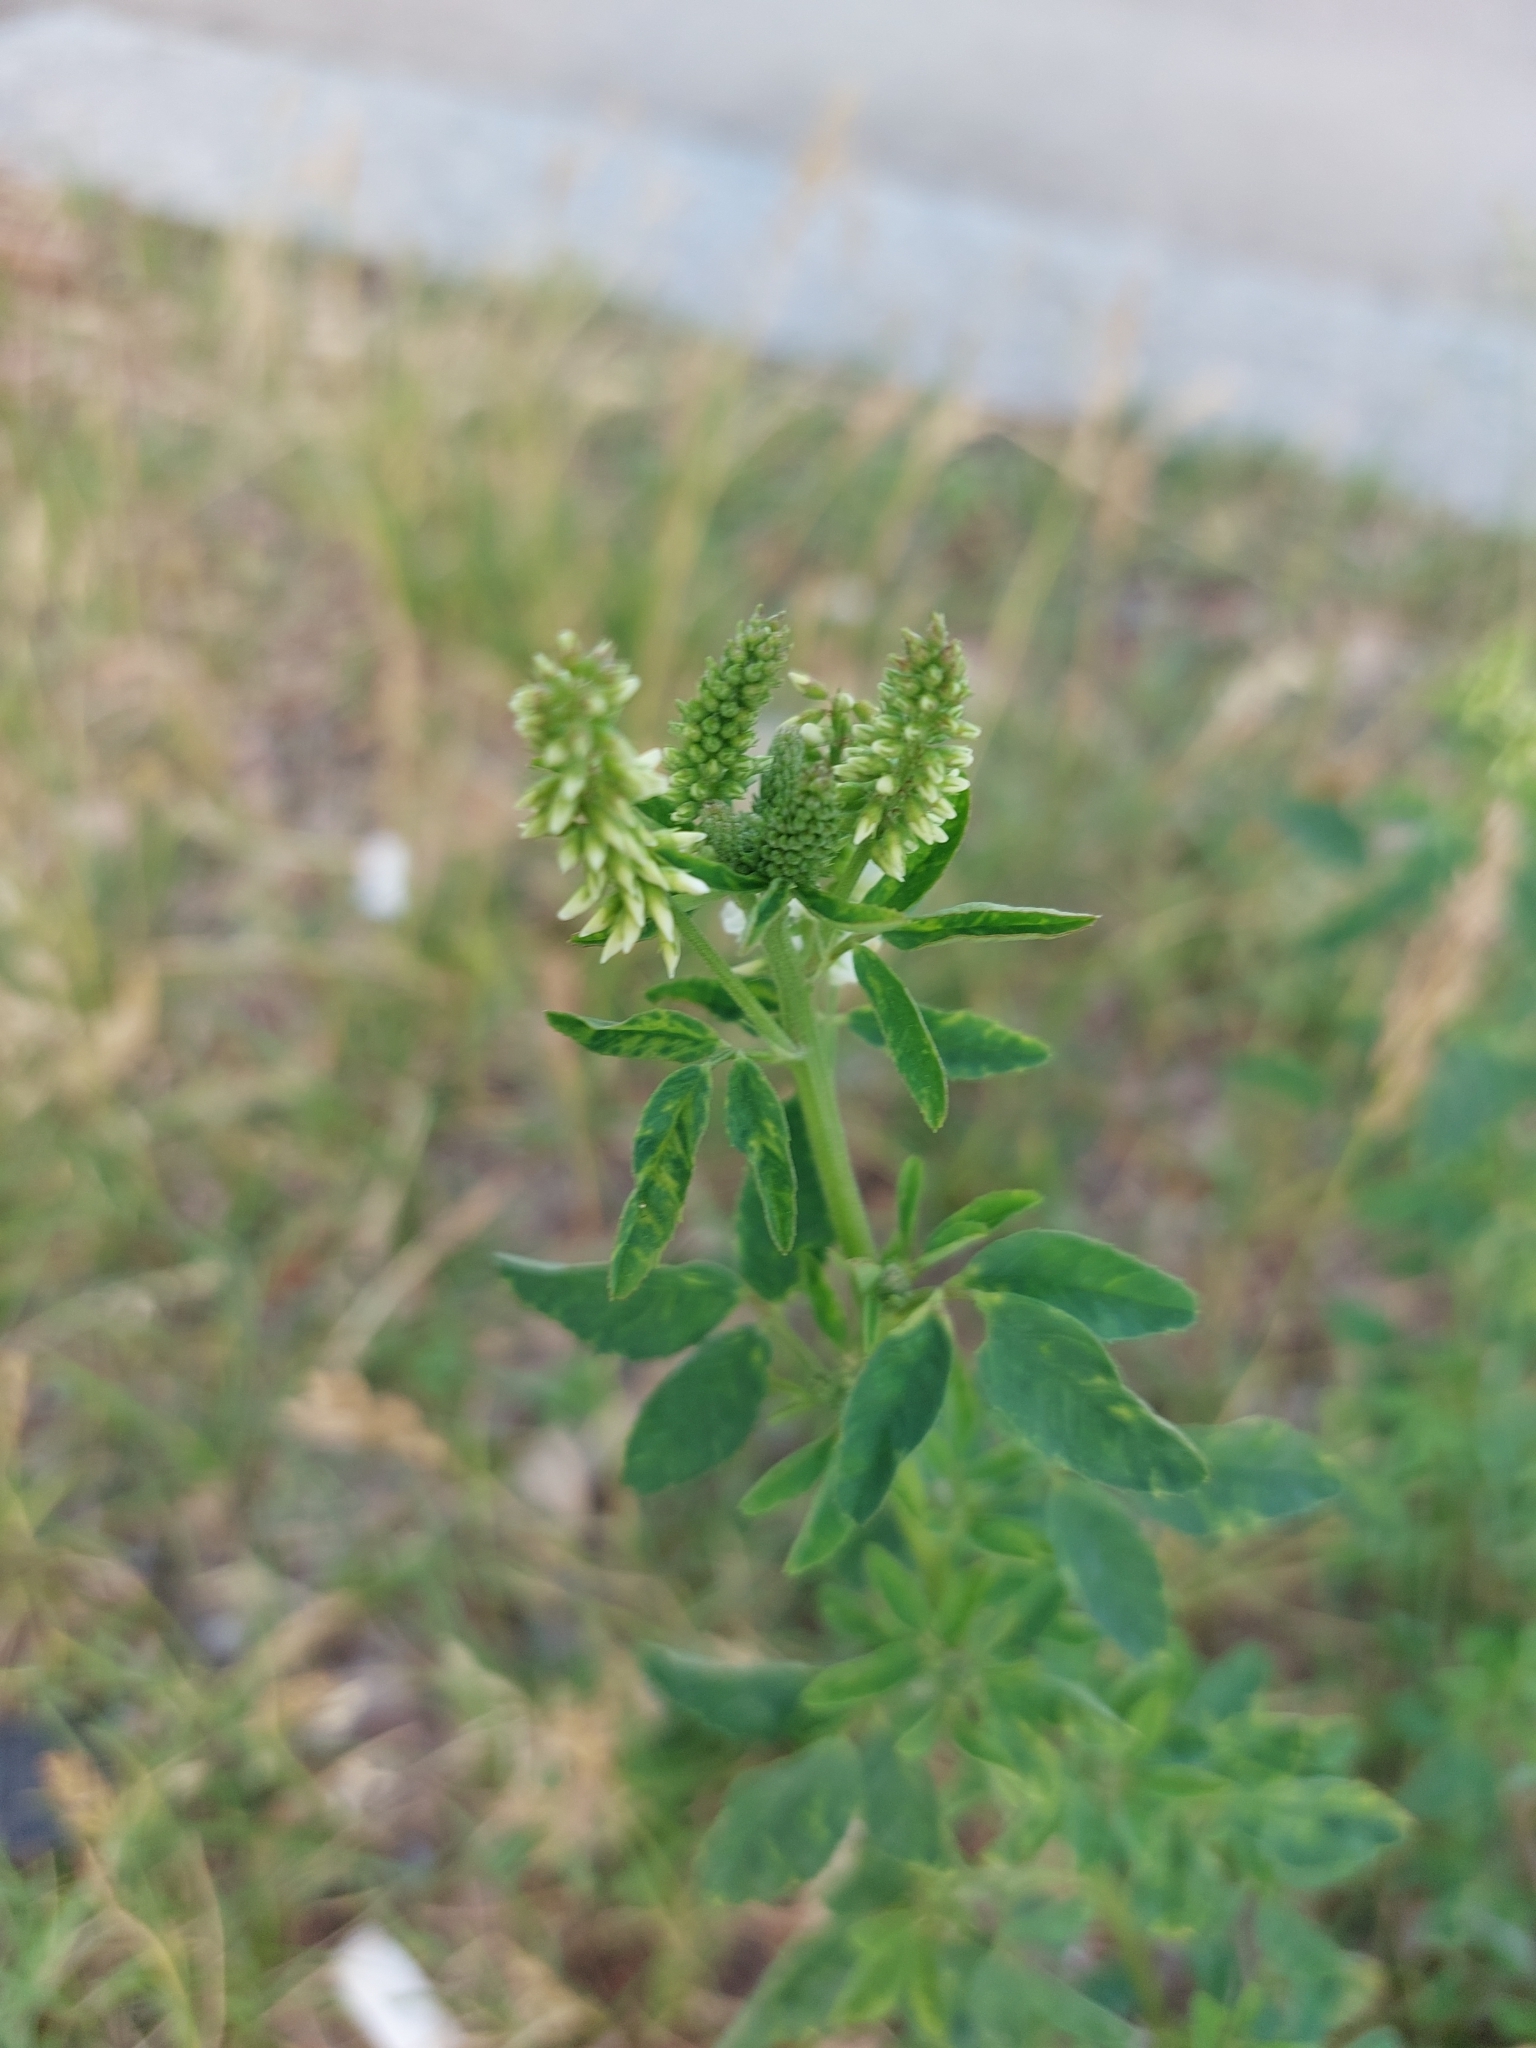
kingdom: Plantae
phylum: Tracheophyta
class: Magnoliopsida
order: Fabales
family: Fabaceae
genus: Melilotus
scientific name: Melilotus albus
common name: White melilot
